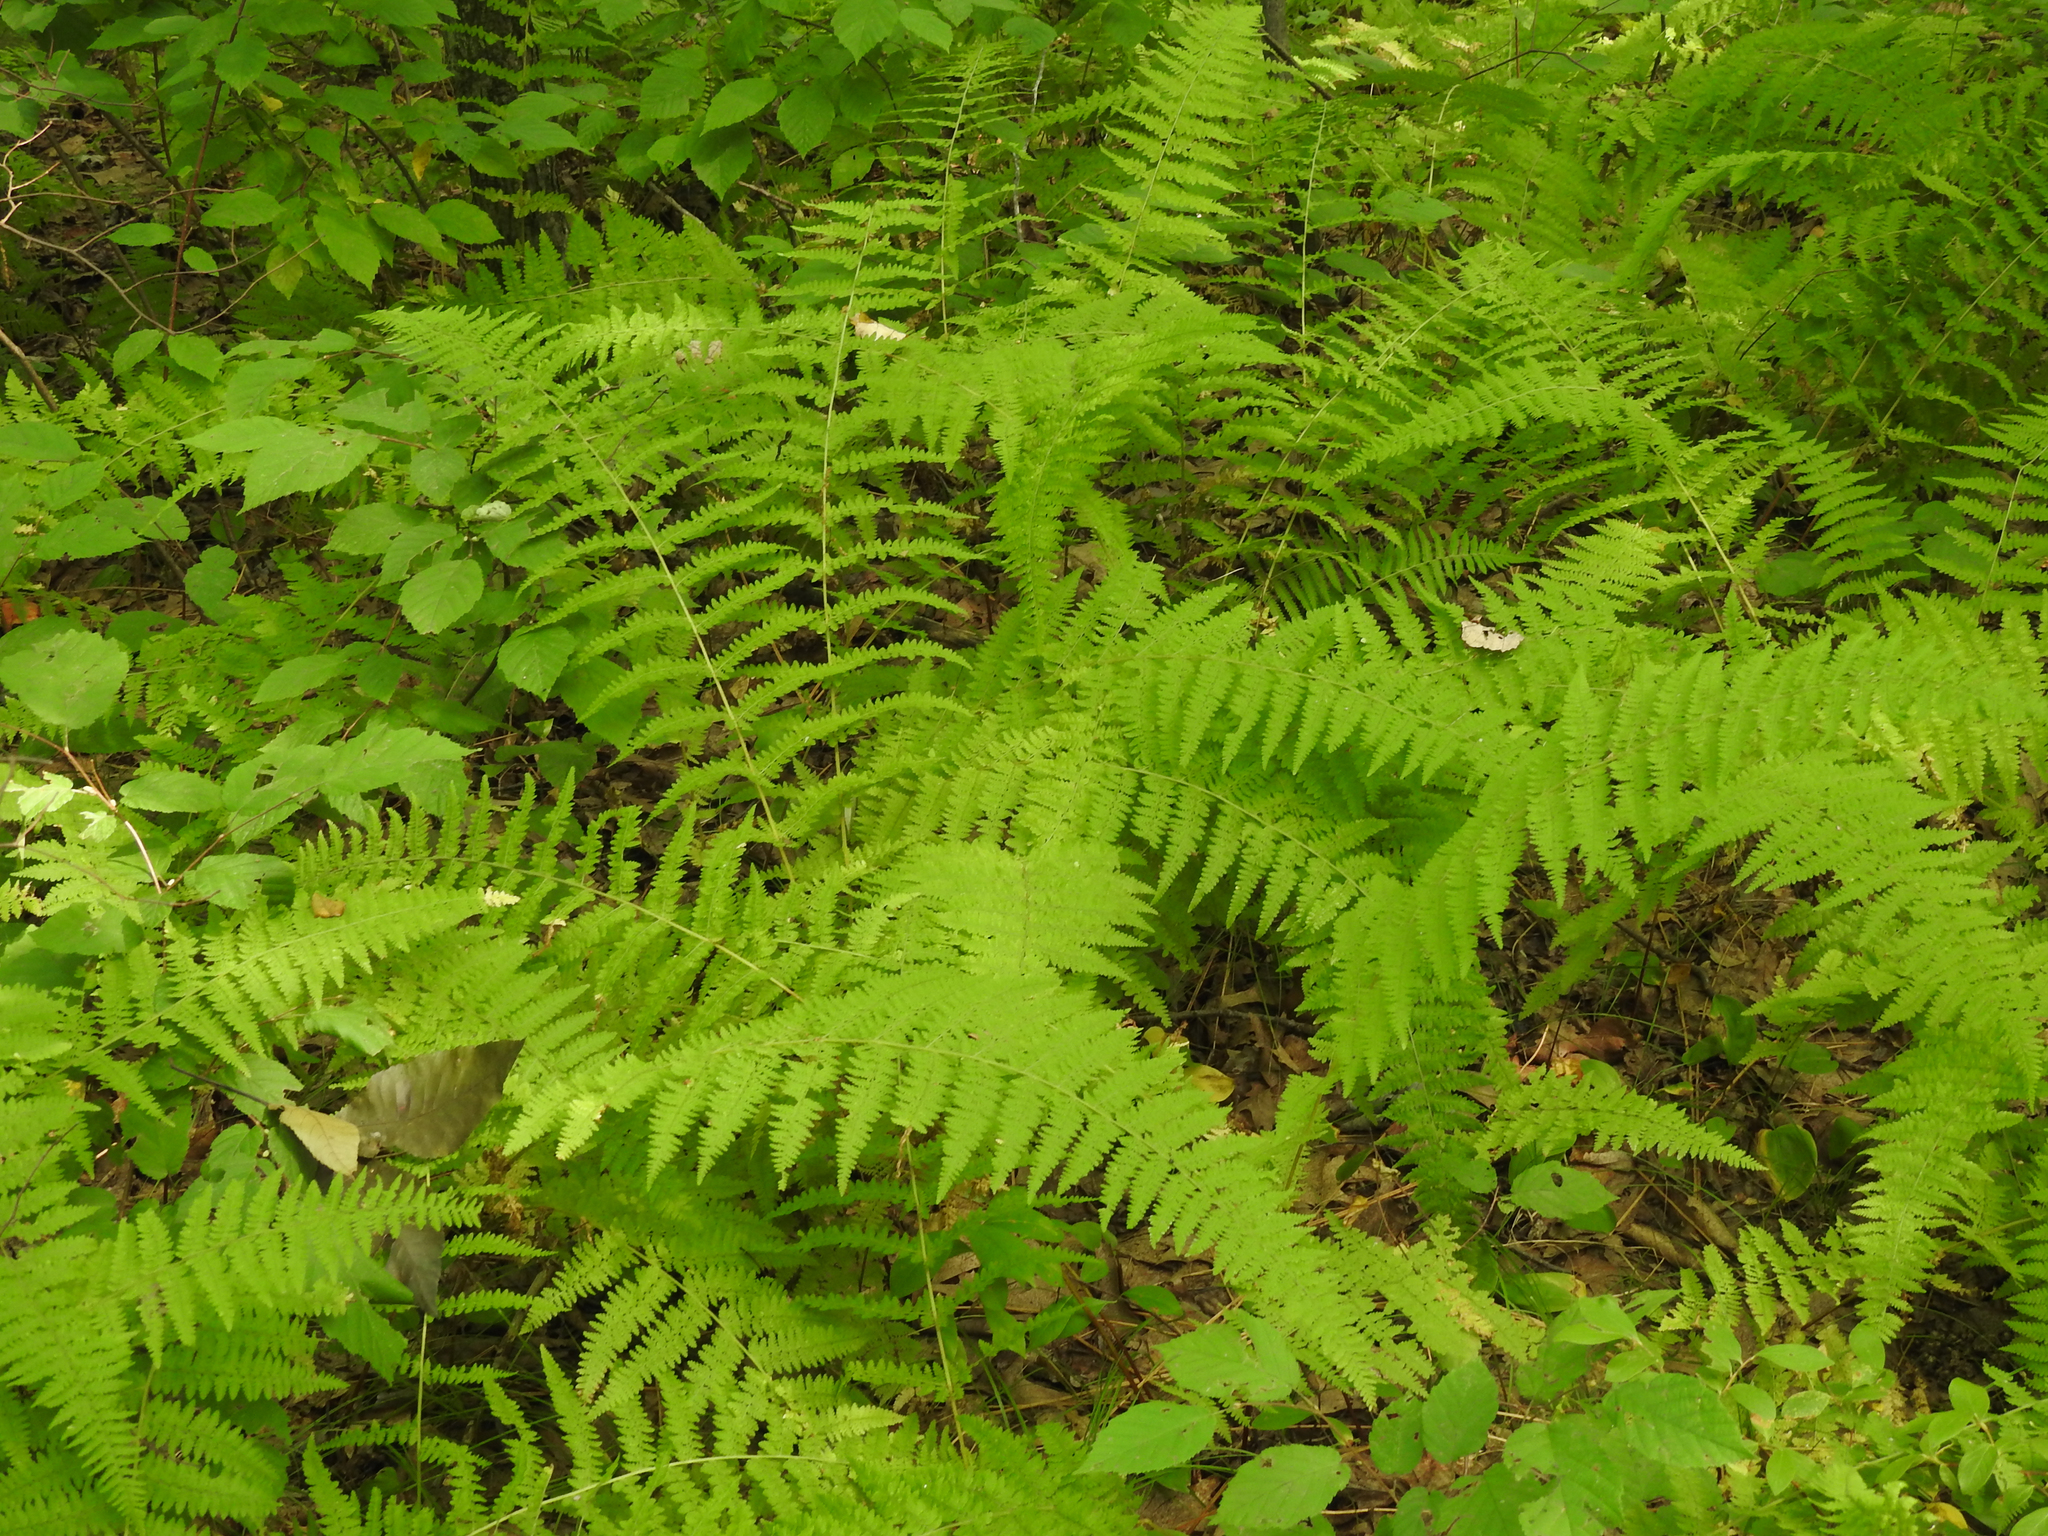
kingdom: Plantae
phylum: Tracheophyta
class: Polypodiopsida
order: Polypodiales
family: Dennstaedtiaceae
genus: Sitobolium
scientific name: Sitobolium punctilobum
